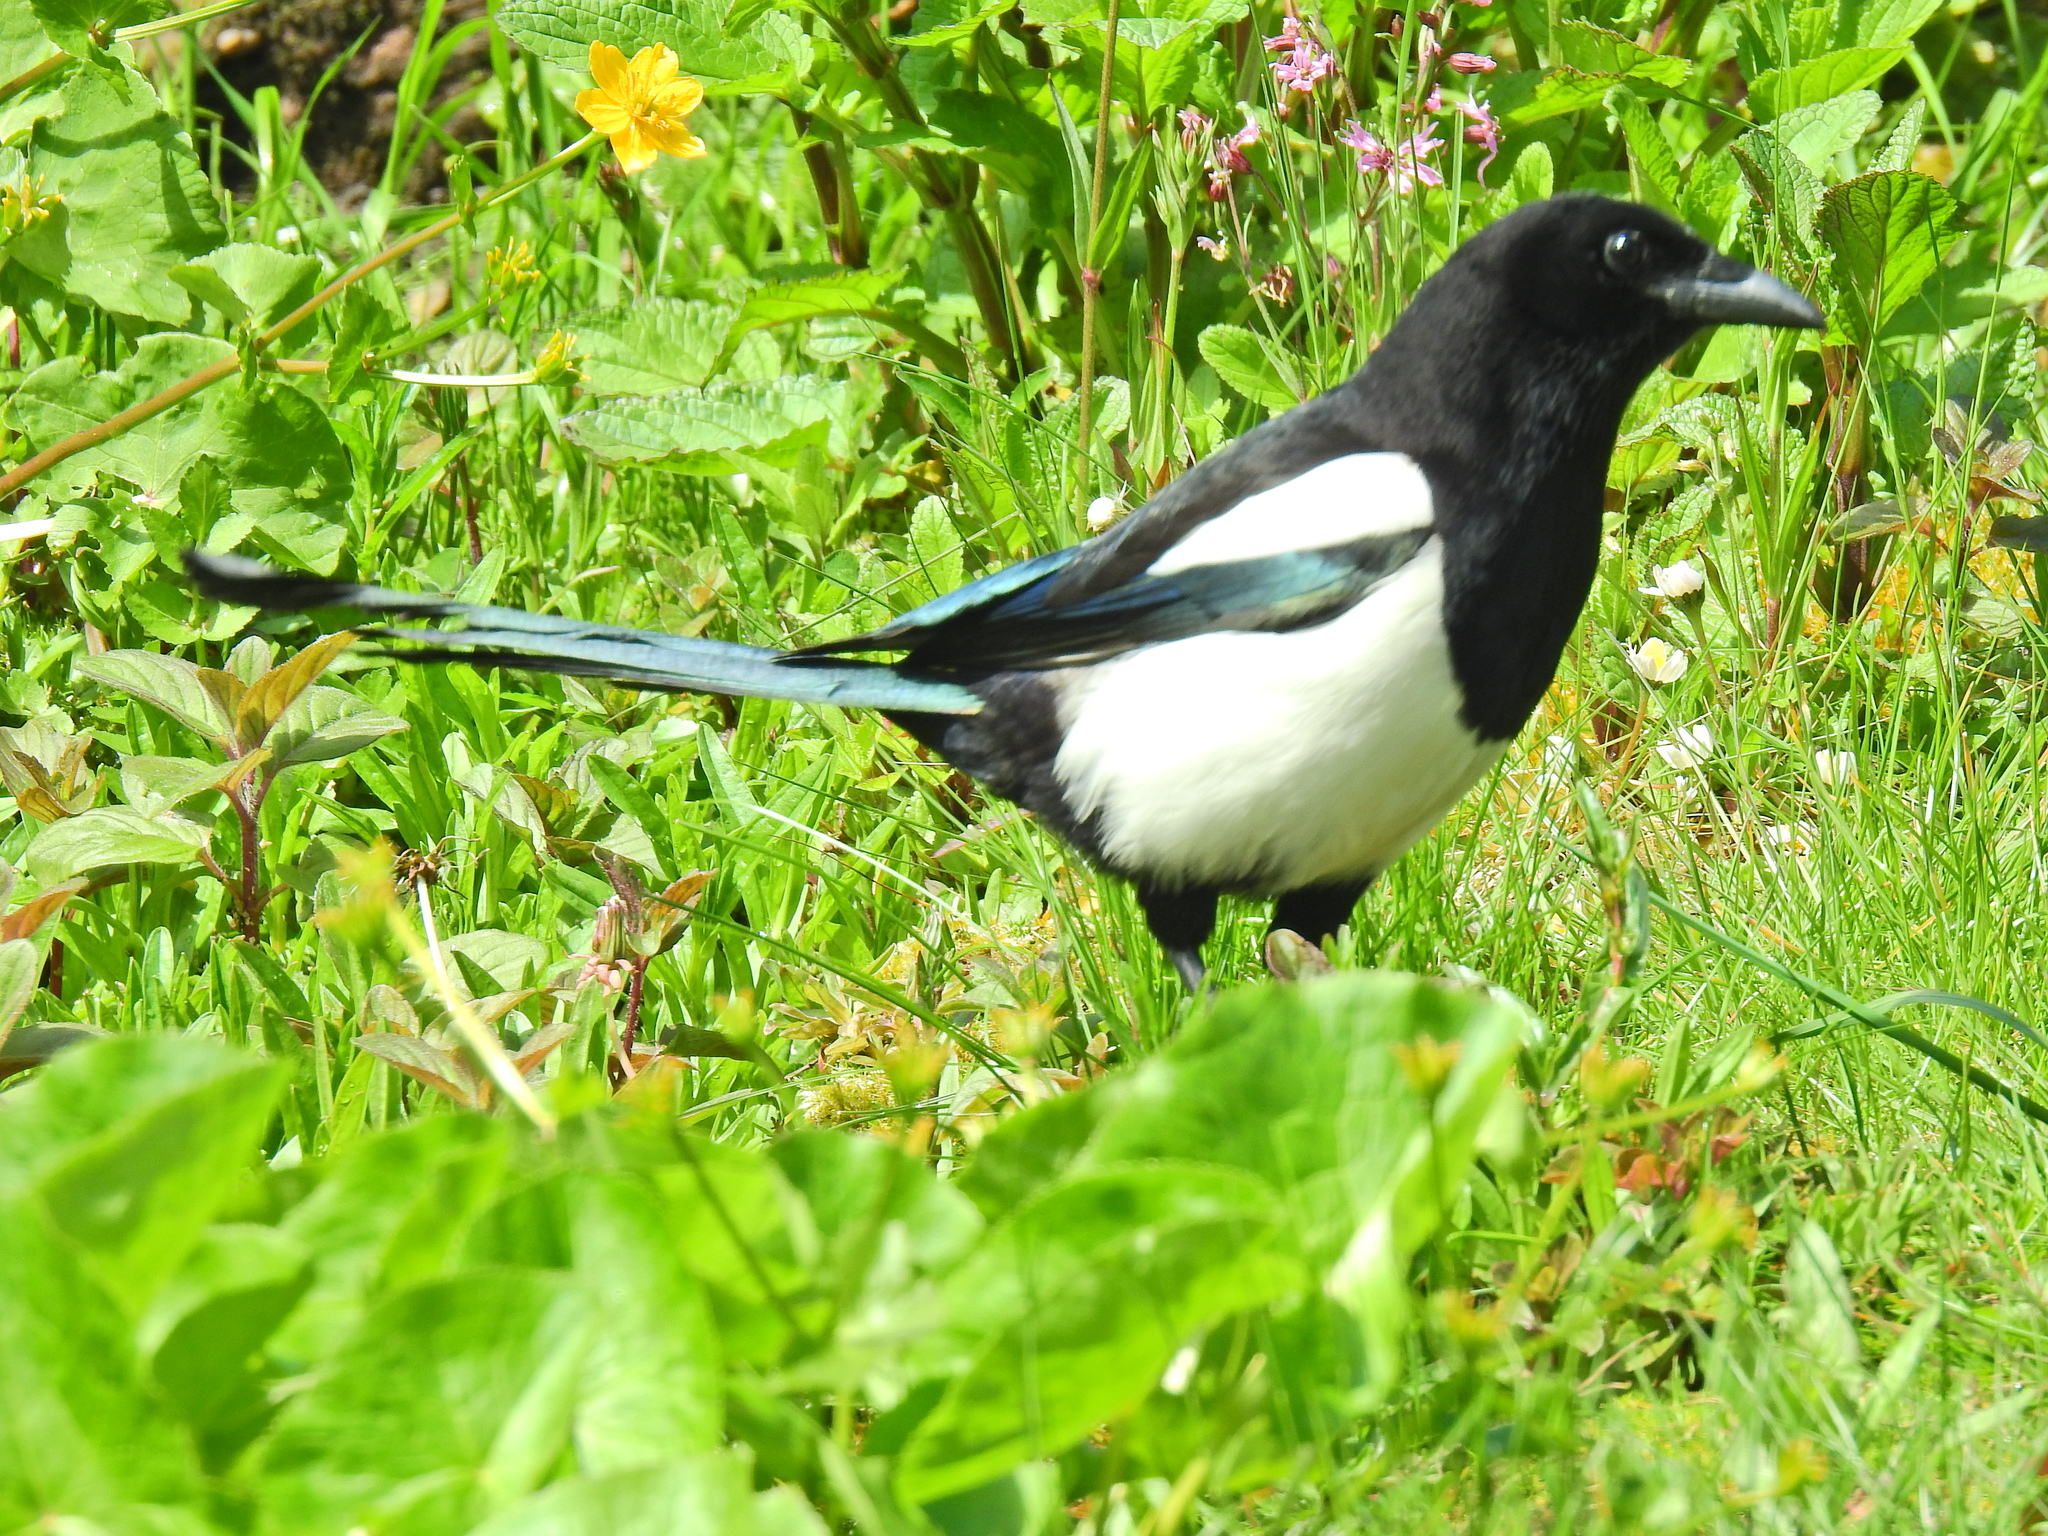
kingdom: Animalia
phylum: Chordata
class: Aves
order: Passeriformes
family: Corvidae
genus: Pica
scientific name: Pica pica
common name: Eurasian magpie
